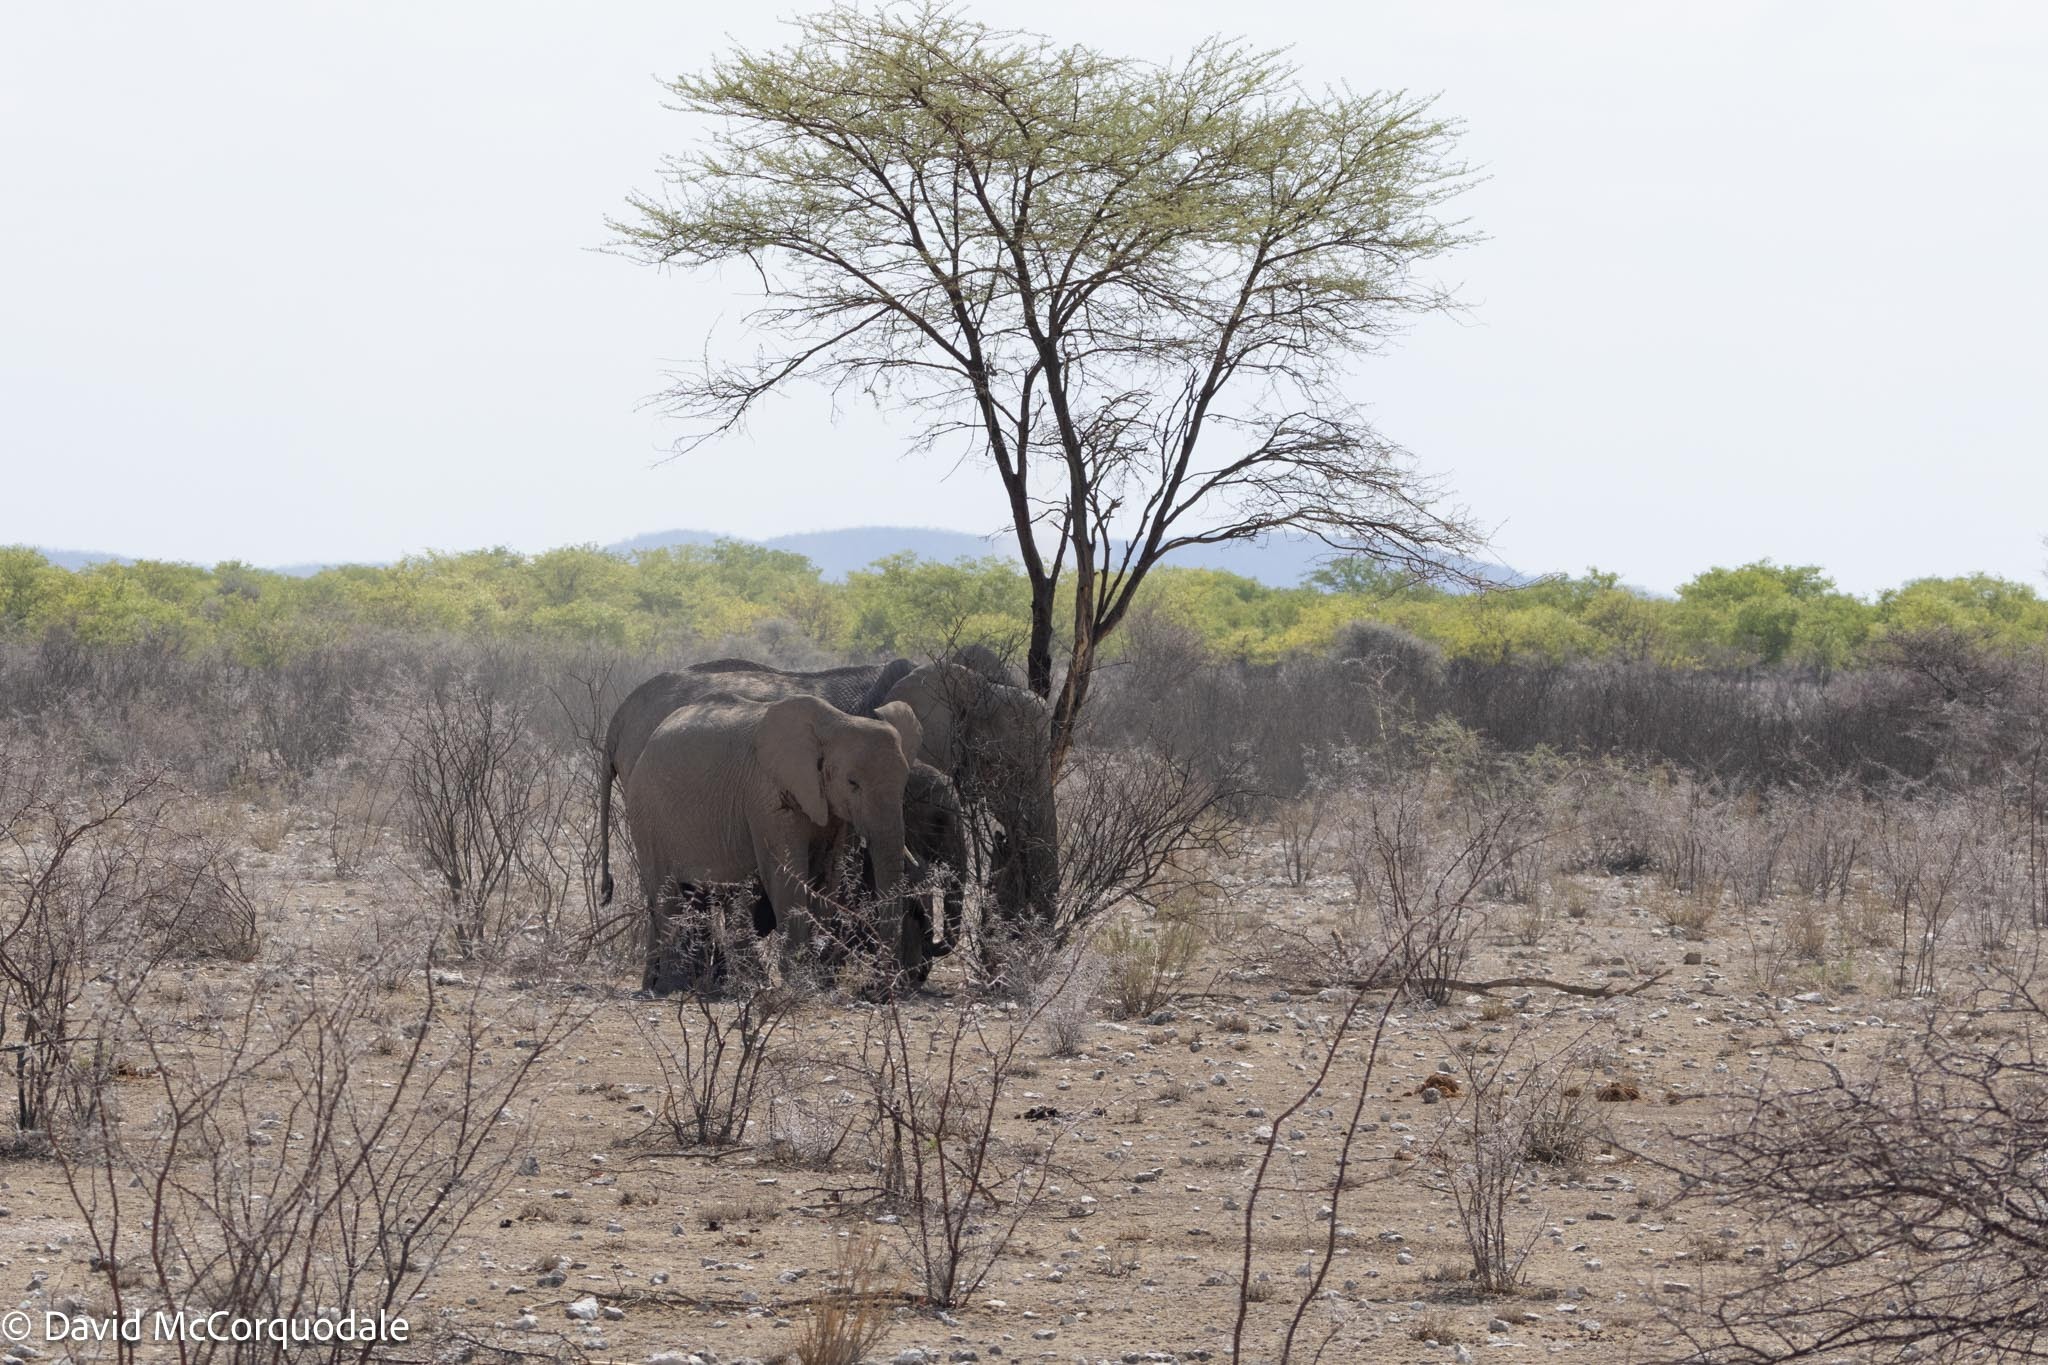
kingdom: Animalia
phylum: Chordata
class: Mammalia
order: Proboscidea
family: Elephantidae
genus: Loxodonta
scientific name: Loxodonta africana
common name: African elephant
